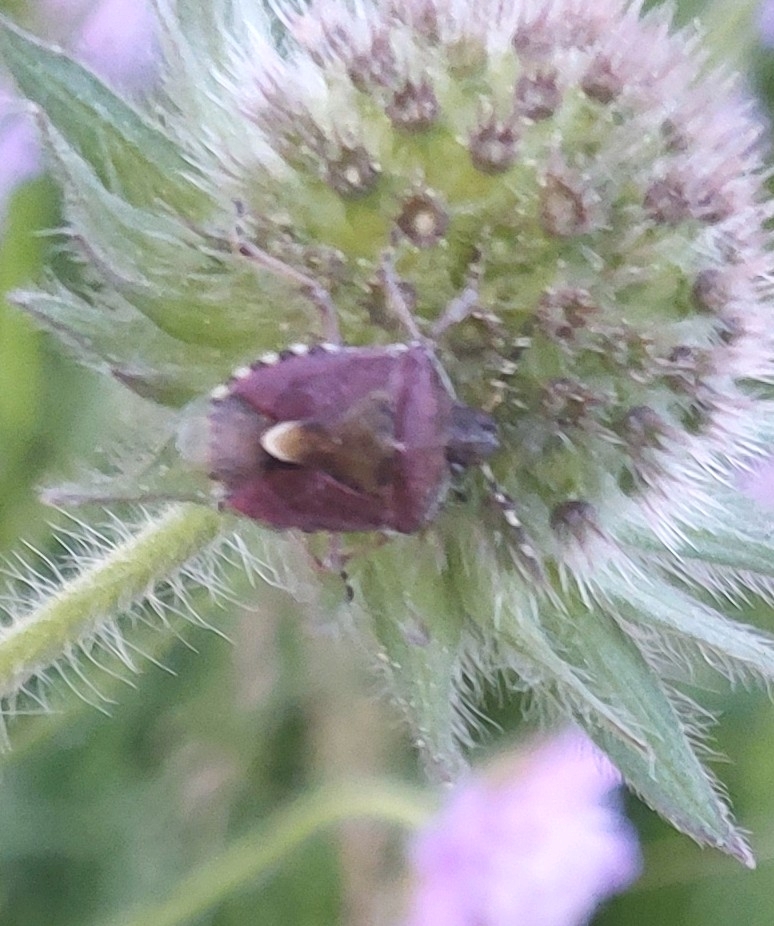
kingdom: Animalia
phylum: Arthropoda
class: Insecta
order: Hemiptera
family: Pentatomidae
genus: Dolycoris
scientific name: Dolycoris baccarum
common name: Sloe bug
